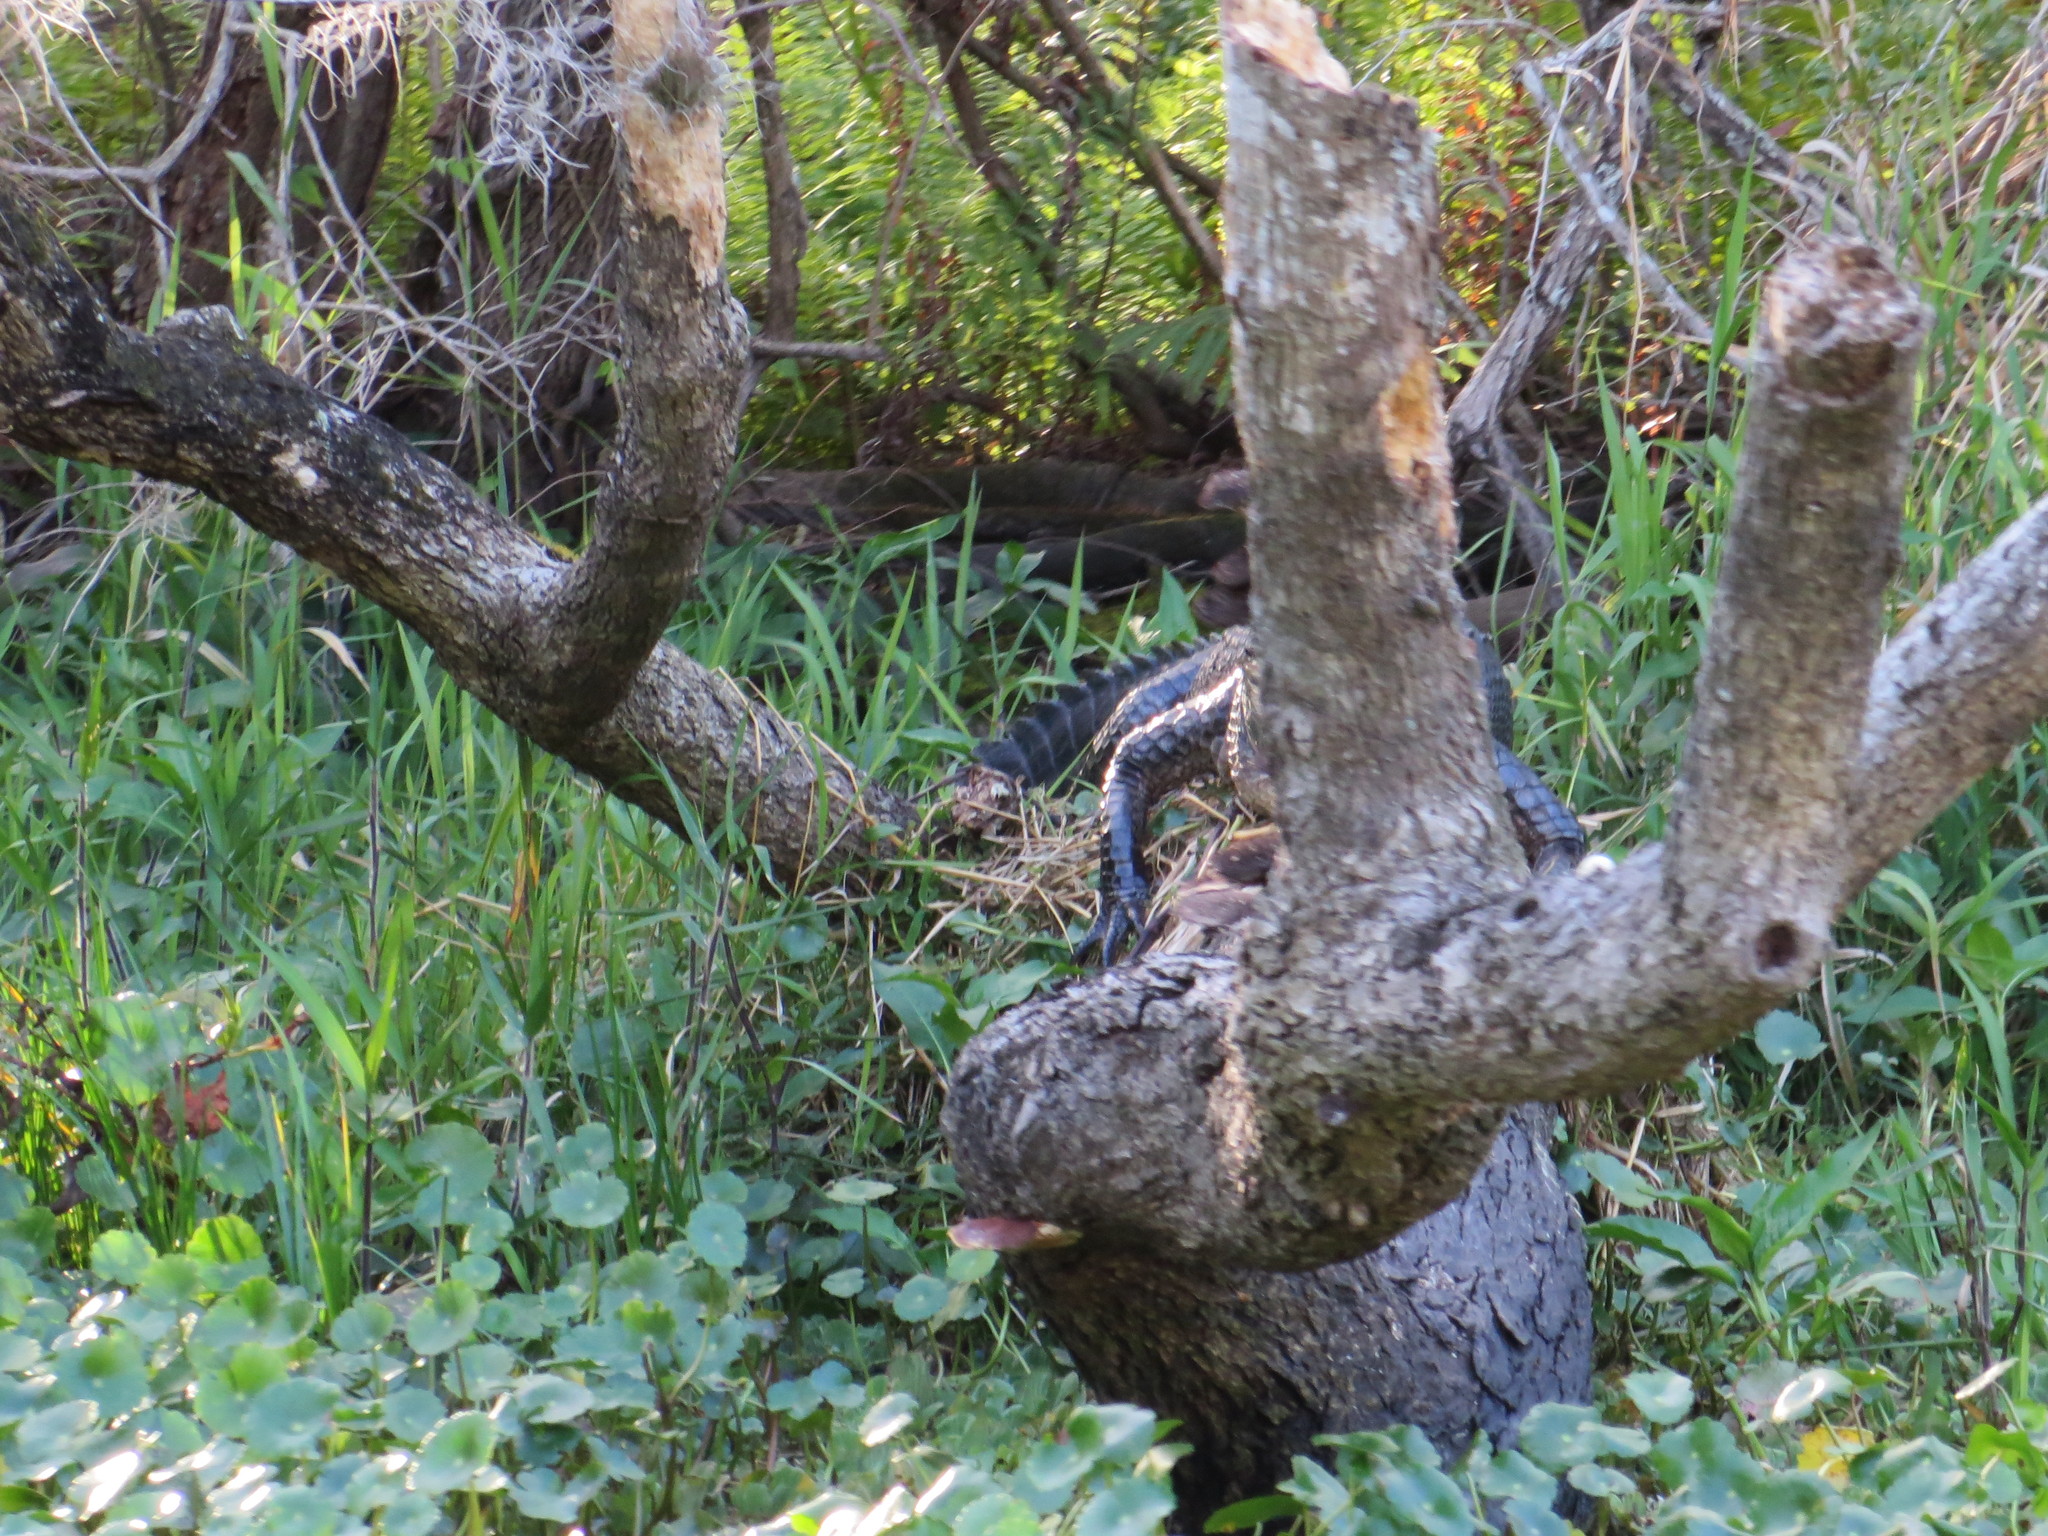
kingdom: Animalia
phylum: Chordata
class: Crocodylia
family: Alligatoridae
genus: Alligator
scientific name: Alligator mississippiensis
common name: American alligator
